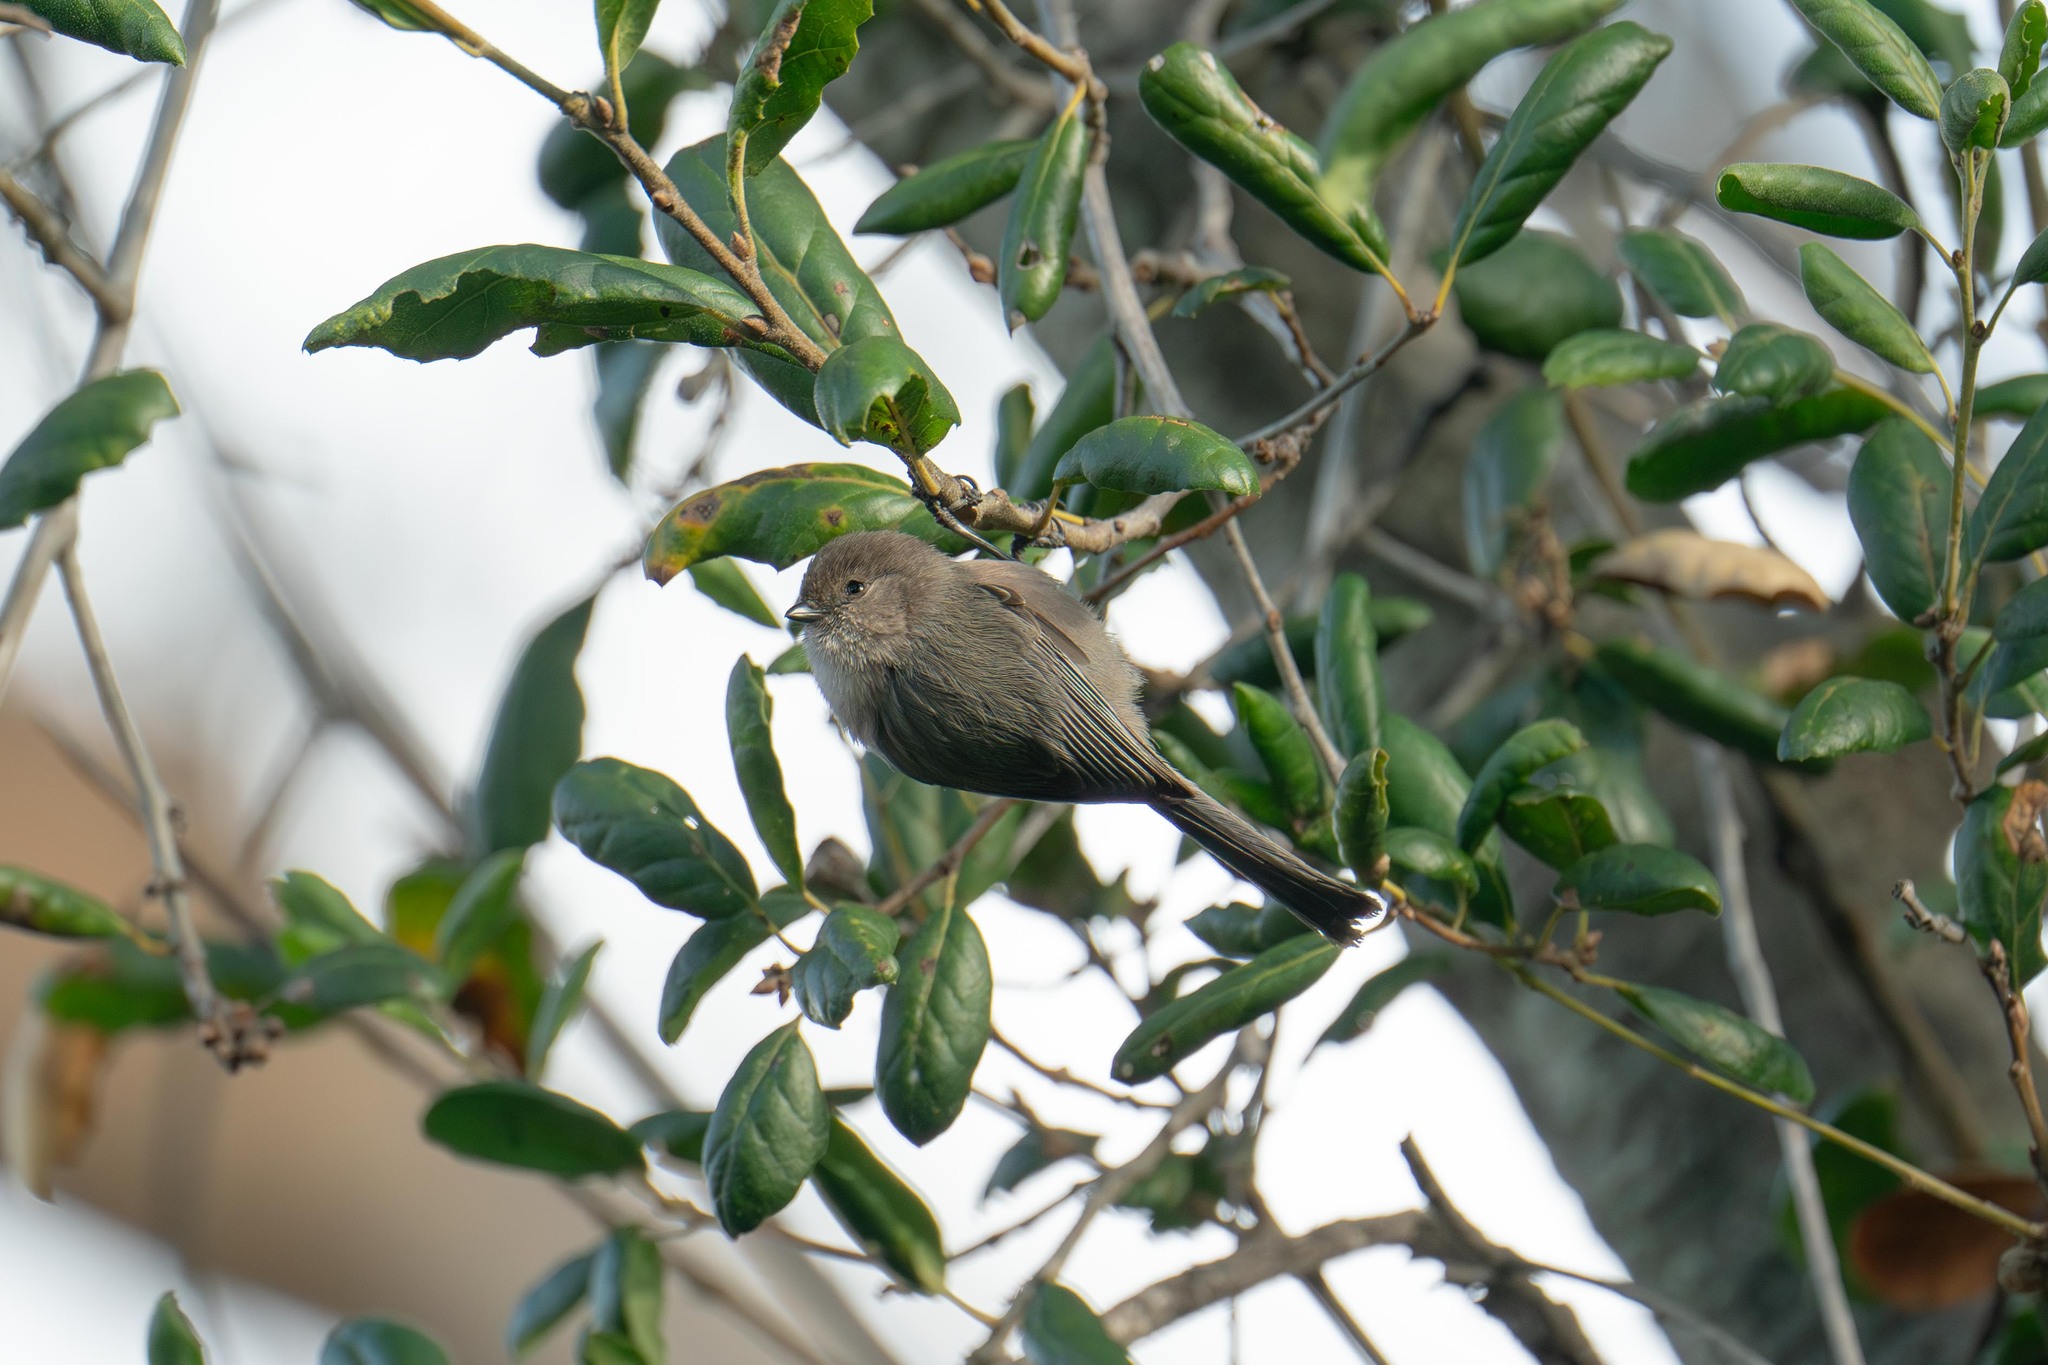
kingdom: Animalia
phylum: Chordata
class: Aves
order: Passeriformes
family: Aegithalidae
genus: Psaltriparus
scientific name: Psaltriparus minimus
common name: American bushtit
